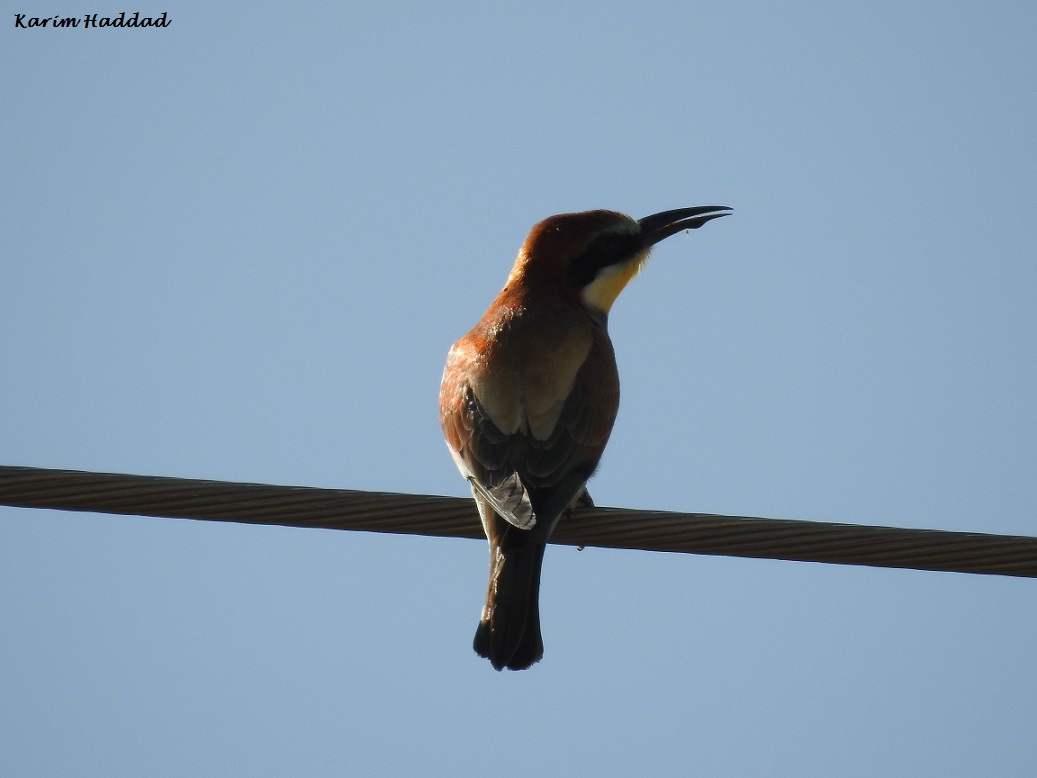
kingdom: Animalia
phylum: Chordata
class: Aves
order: Coraciiformes
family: Meropidae
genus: Merops
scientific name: Merops apiaster
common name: European bee-eater
